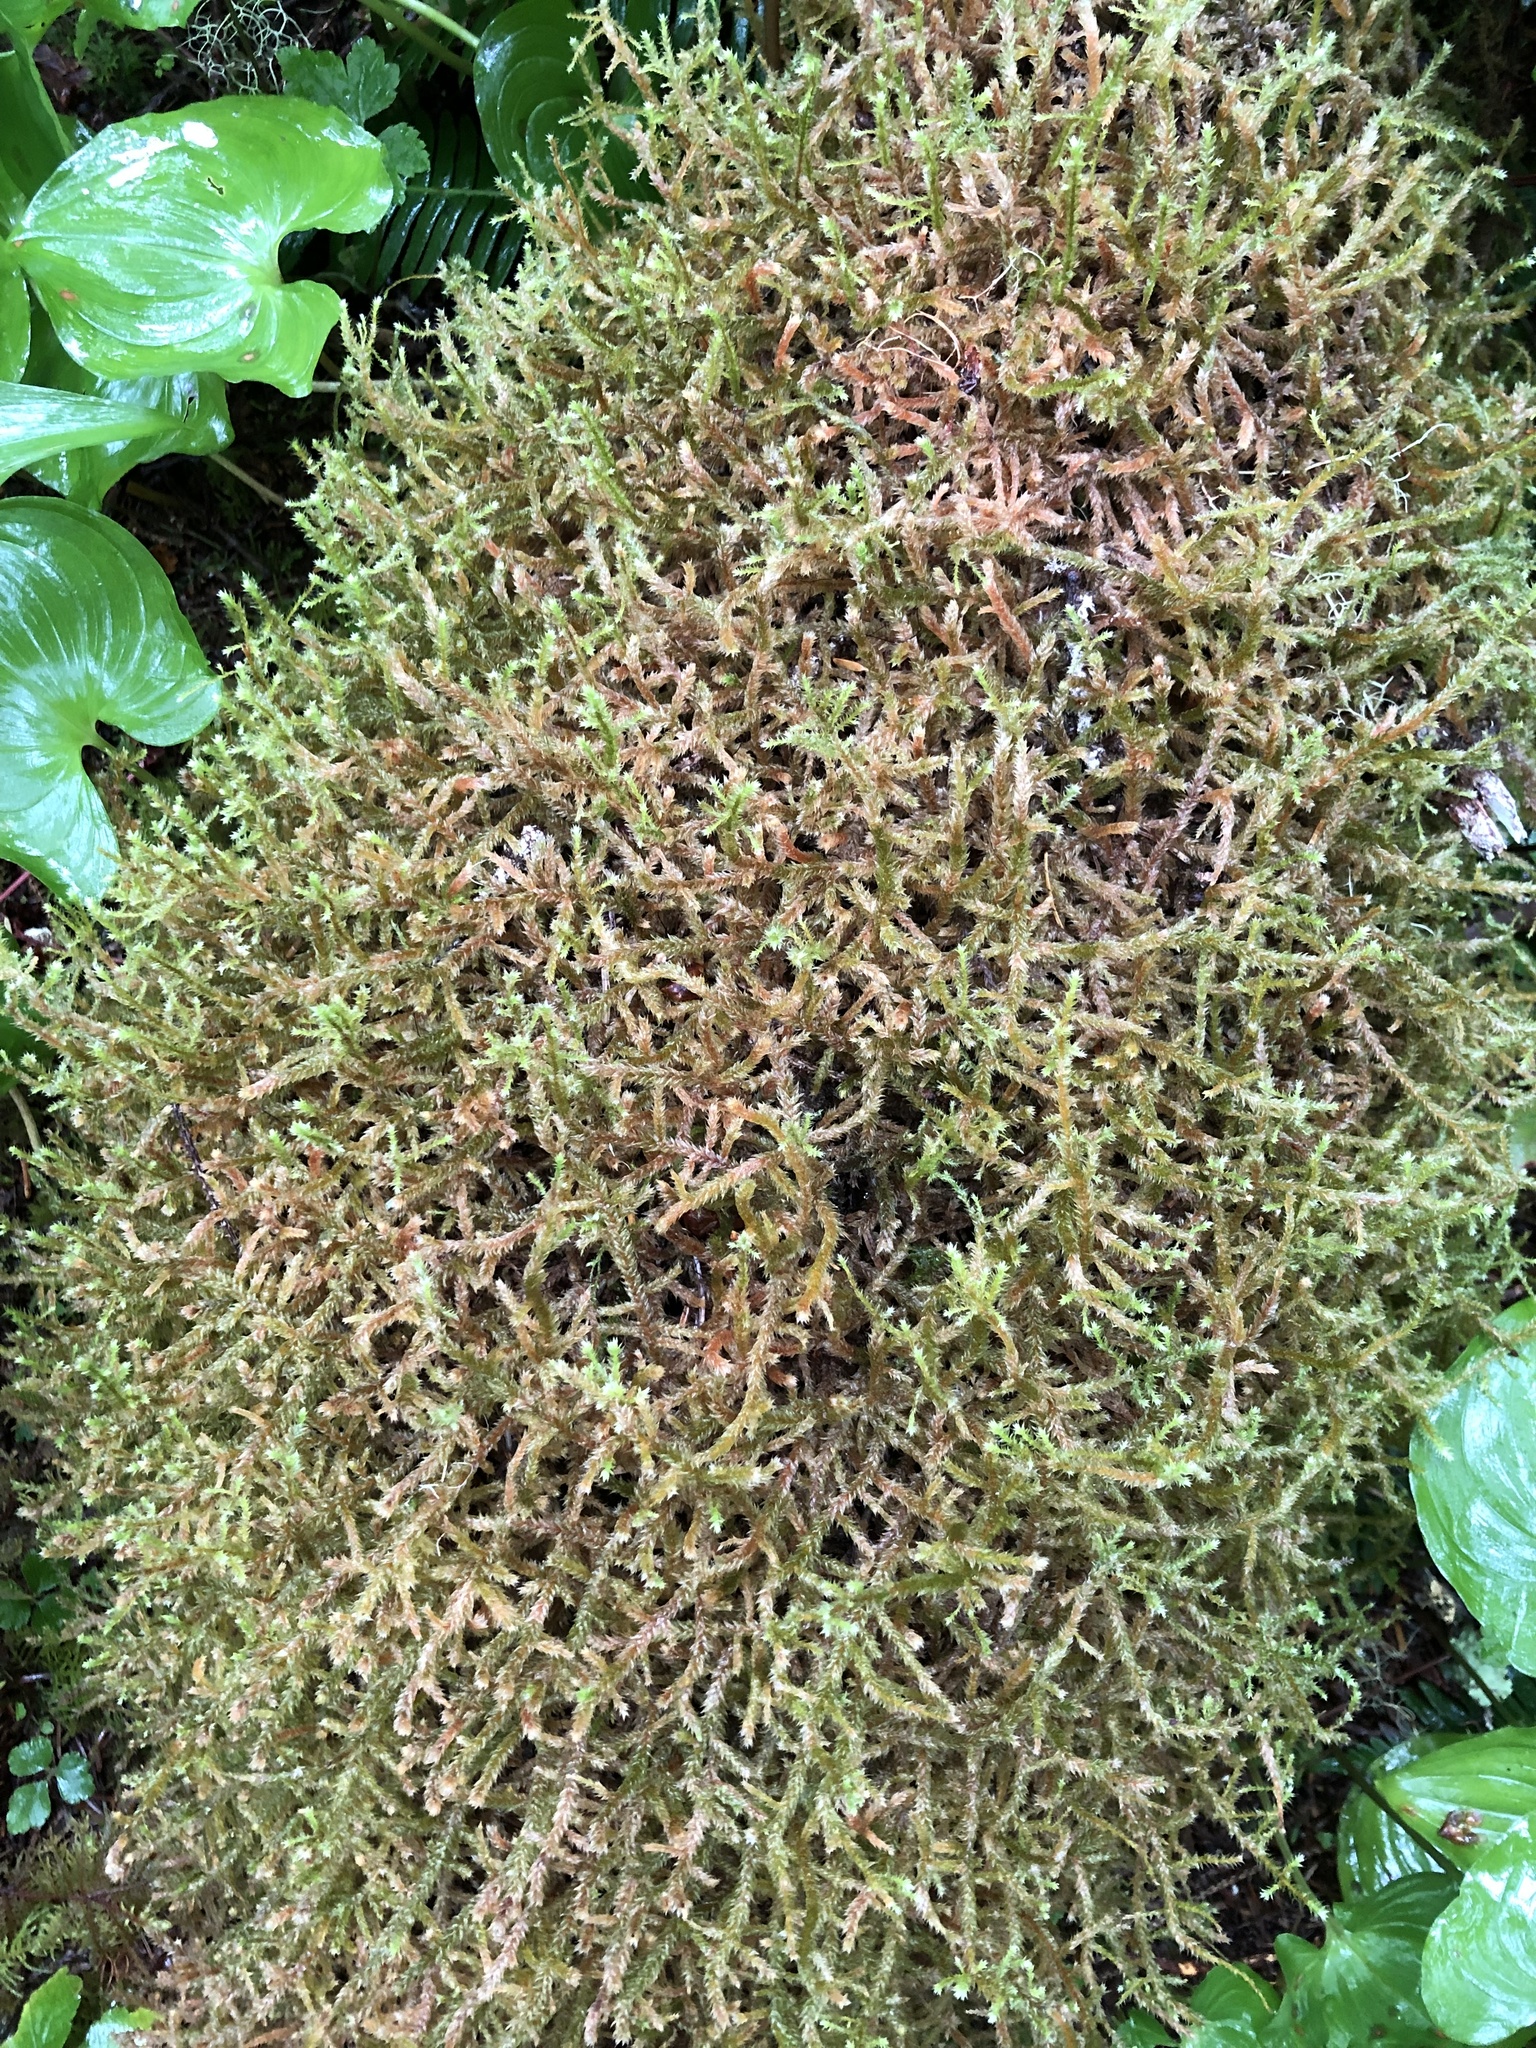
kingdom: Plantae
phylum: Bryophyta
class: Bryopsida
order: Hypnales
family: Antitrichiaceae
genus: Antitrichia
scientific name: Antitrichia curtipendula
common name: Pendulous wing-moss
